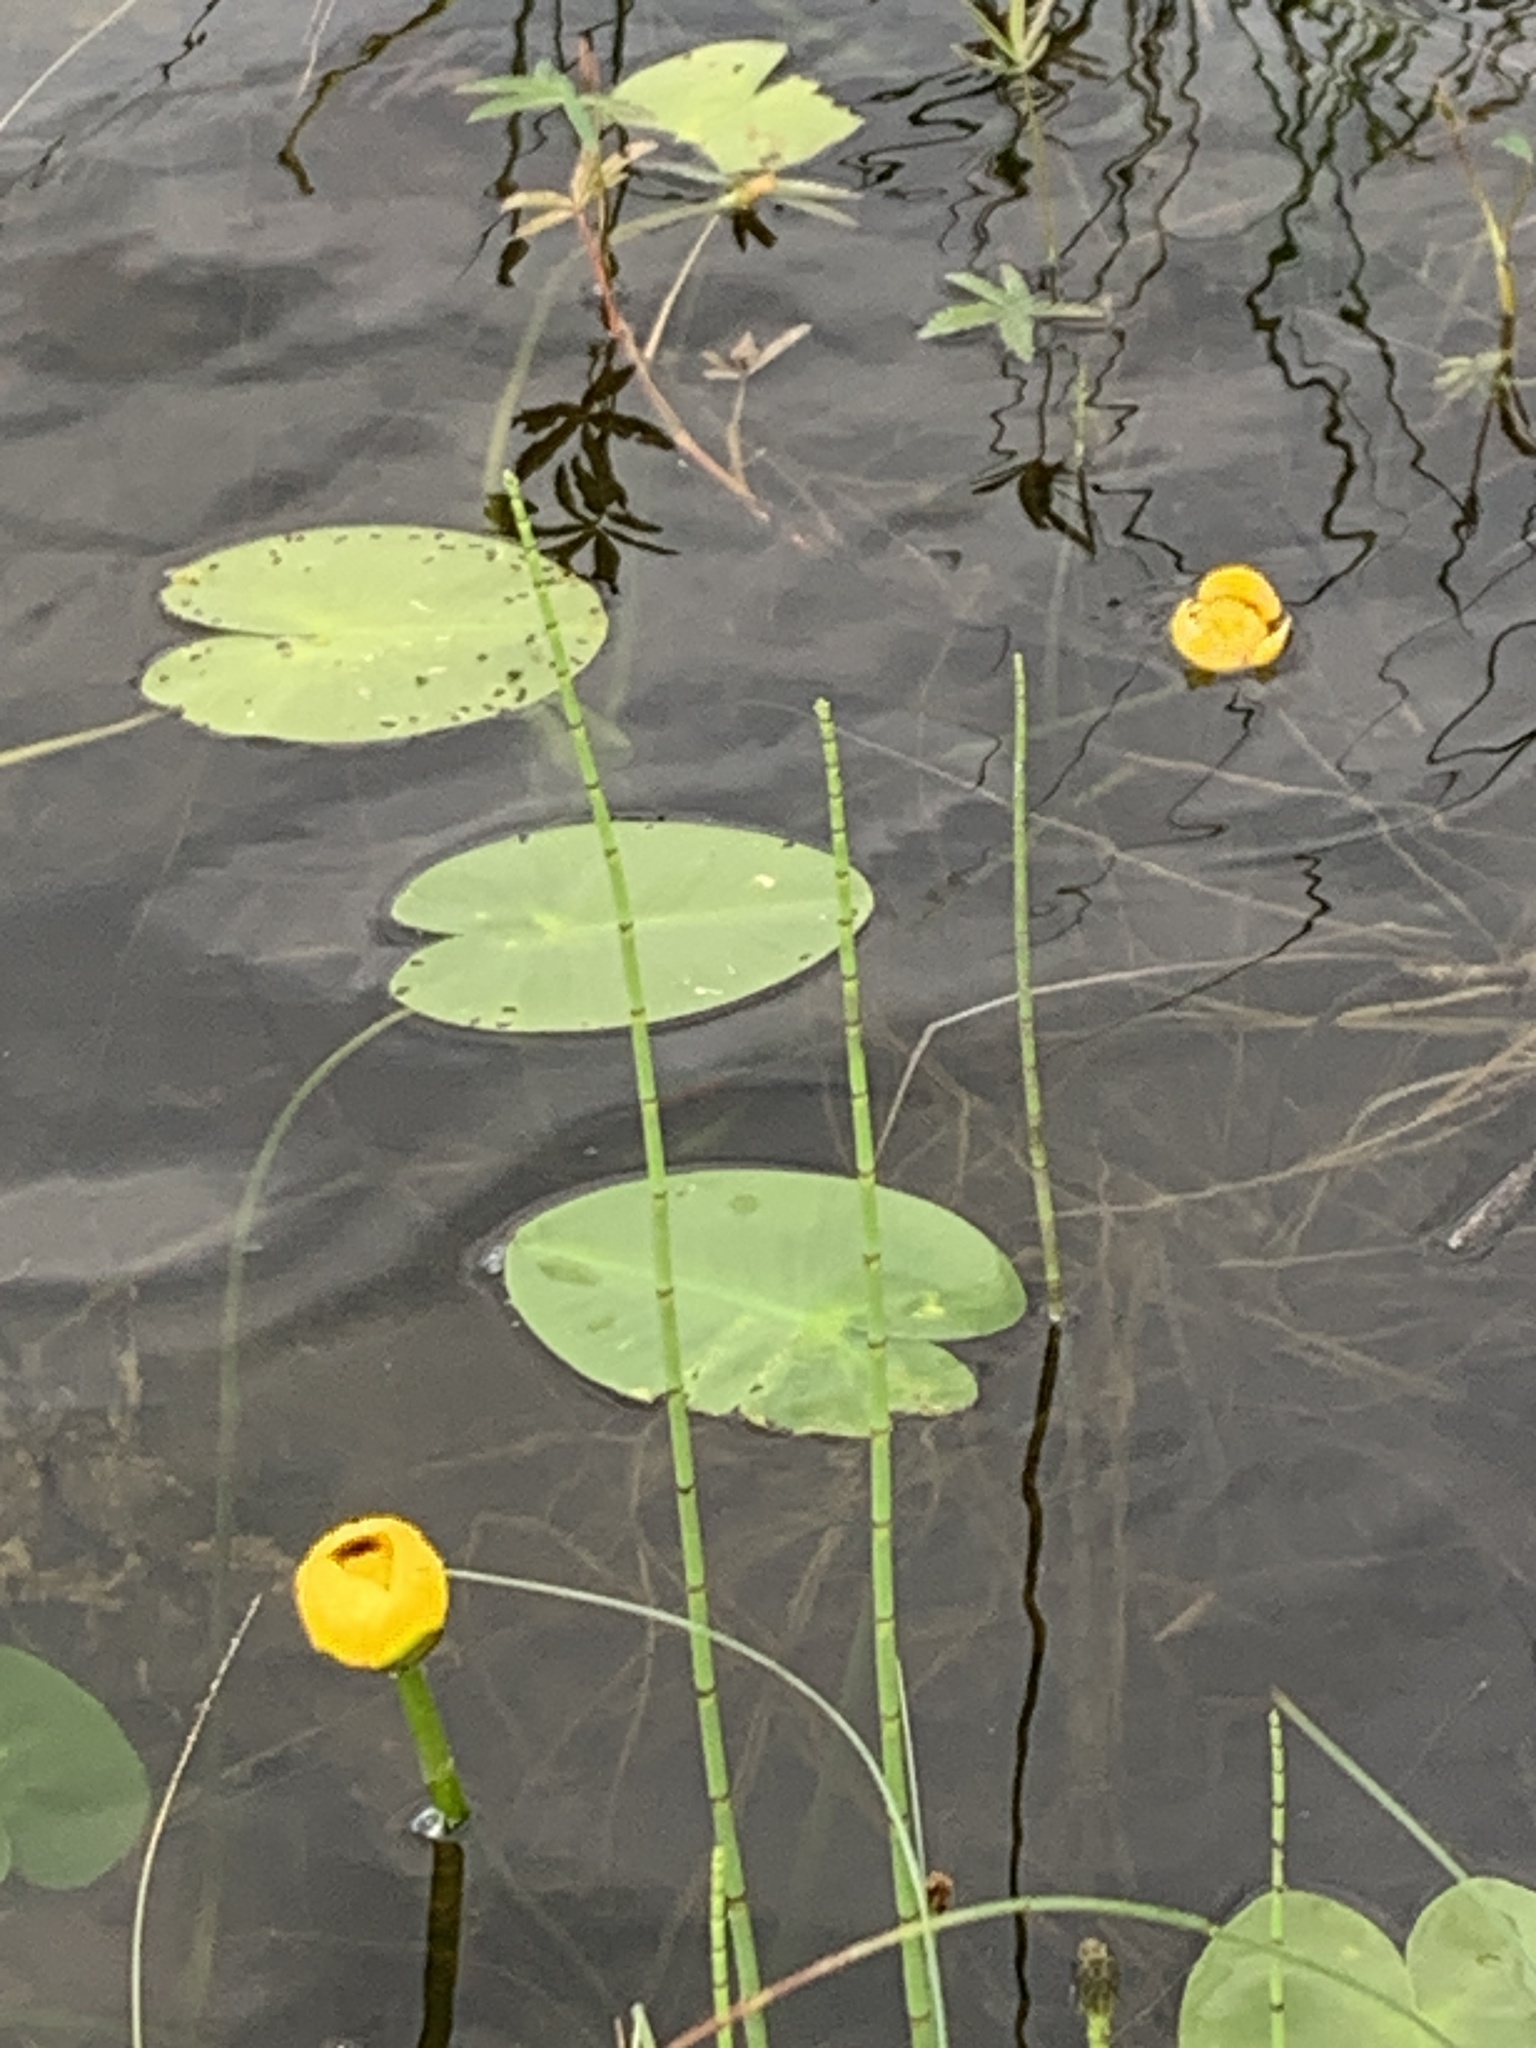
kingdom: Plantae
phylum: Tracheophyta
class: Magnoliopsida
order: Nymphaeales
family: Nymphaeaceae
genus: Nuphar
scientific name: Nuphar variegata
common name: Beaver-root
